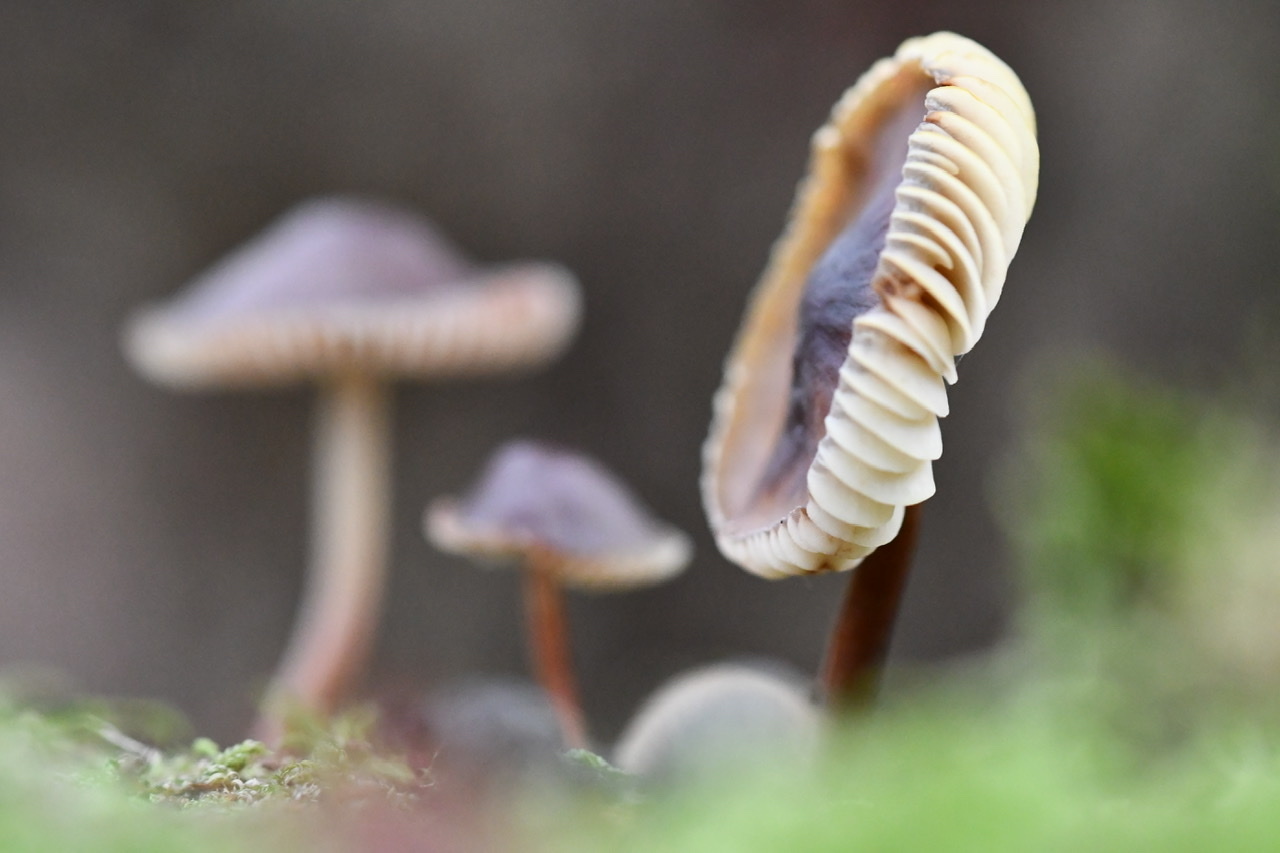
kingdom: Fungi
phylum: Basidiomycota
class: Agaricomycetes
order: Agaricales
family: Mycenaceae
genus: Mycena
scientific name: Mycena maculata
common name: Stained bonnet
